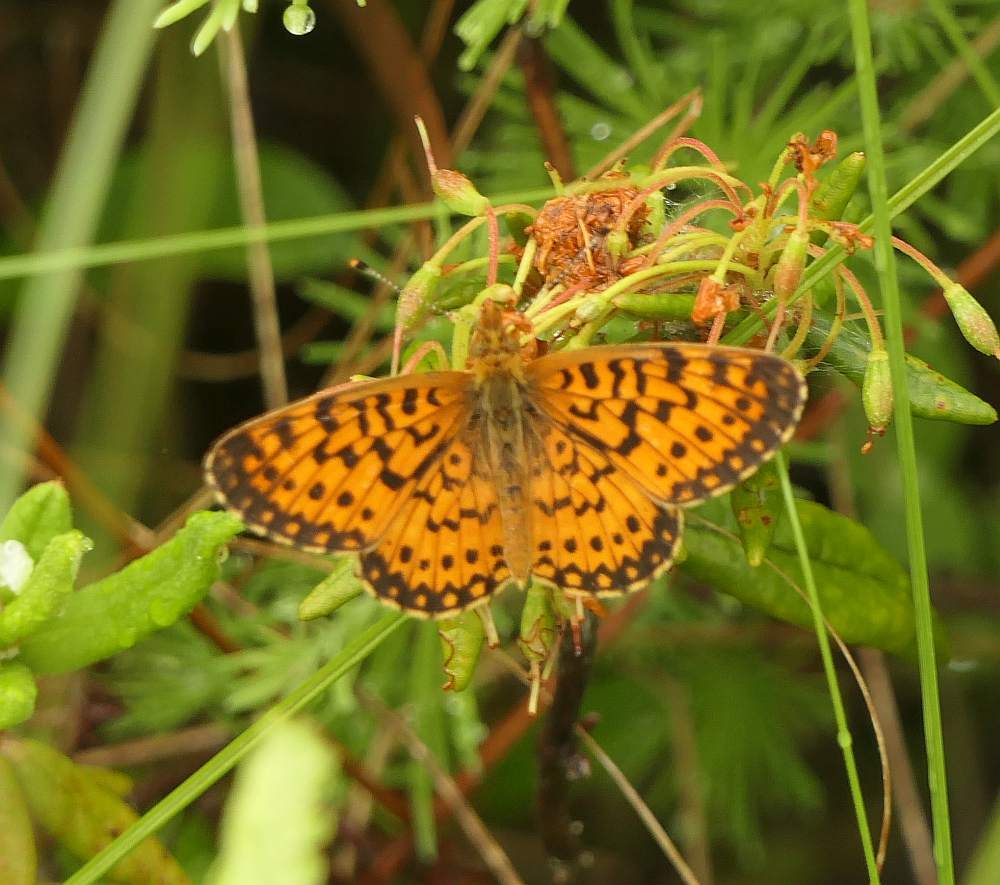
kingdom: Animalia
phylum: Arthropoda
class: Insecta
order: Lepidoptera
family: Nymphalidae
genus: Boloria
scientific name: Boloria
